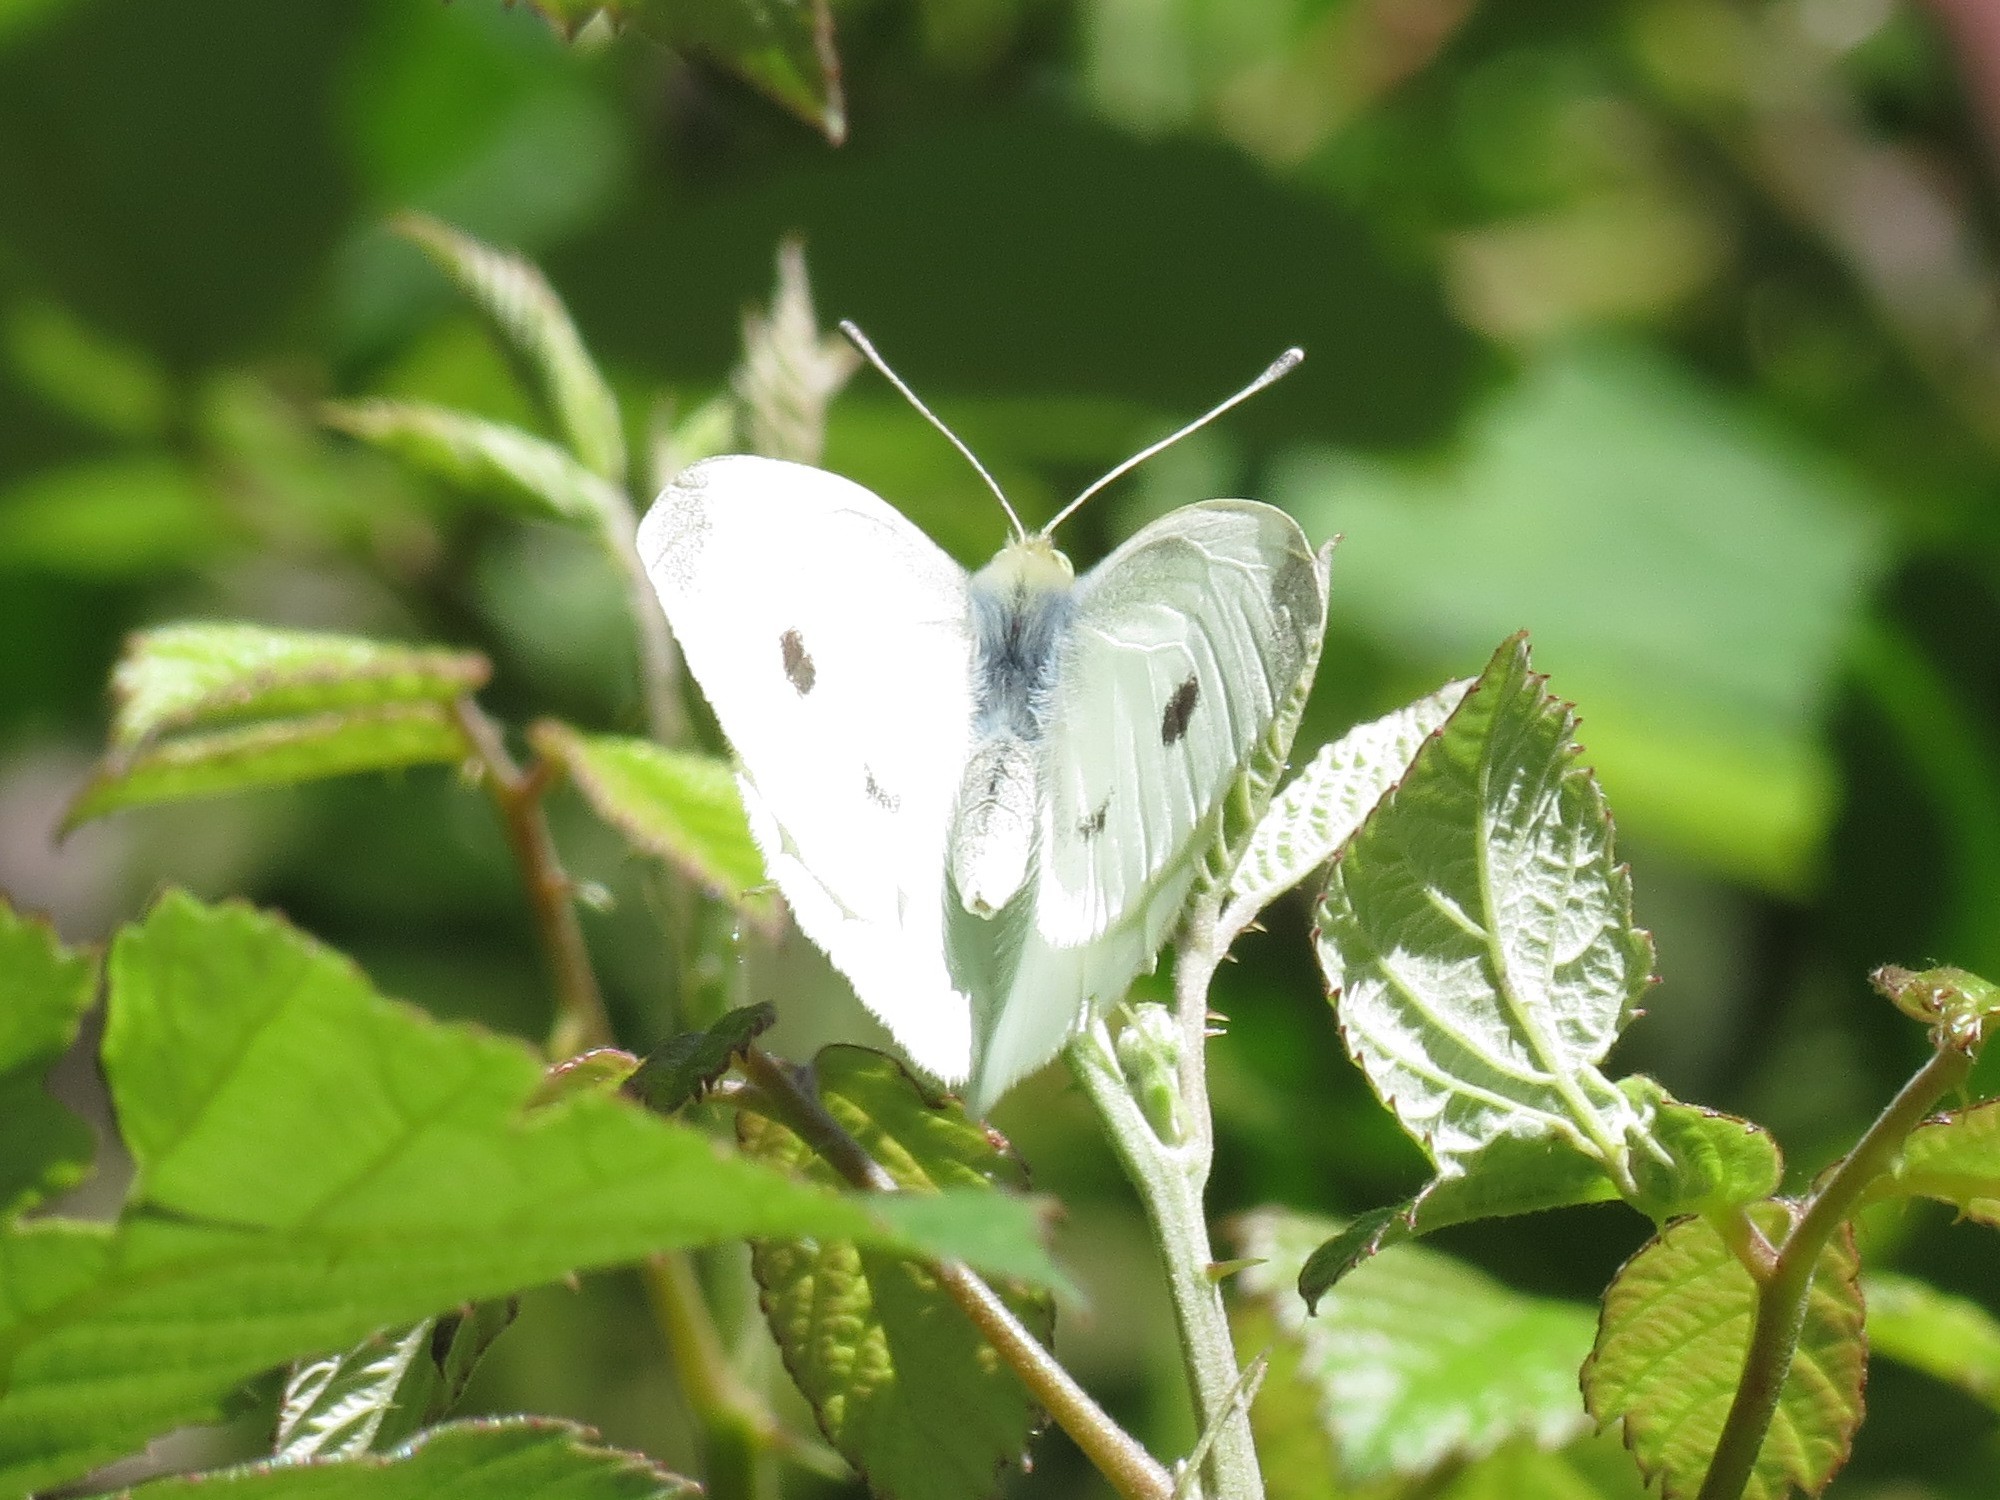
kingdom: Animalia
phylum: Arthropoda
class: Insecta
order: Lepidoptera
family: Pieridae
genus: Pieris
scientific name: Pieris rapae
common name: Small white
